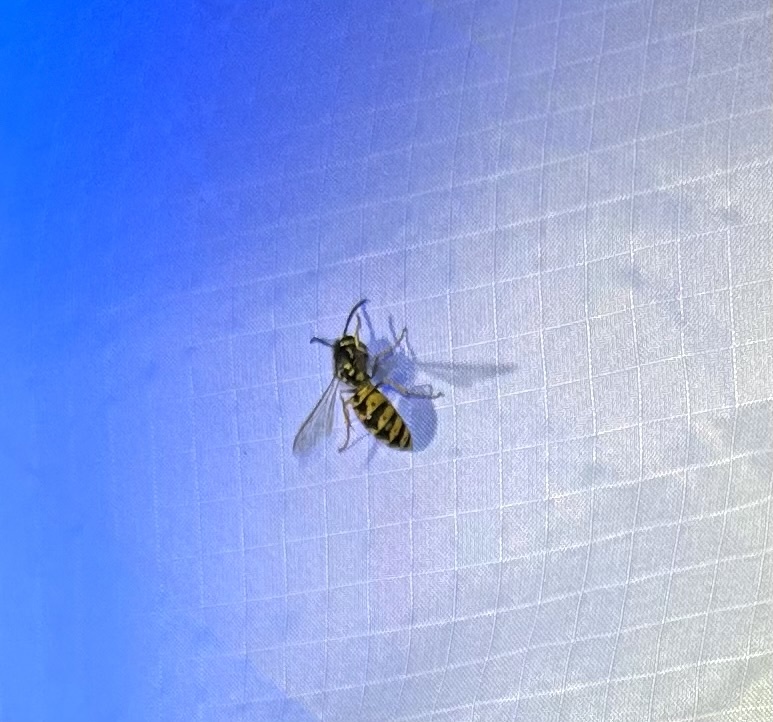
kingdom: Animalia
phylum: Arthropoda
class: Insecta
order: Hymenoptera
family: Vespidae
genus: Vespula
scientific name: Vespula germanica
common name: German wasp
